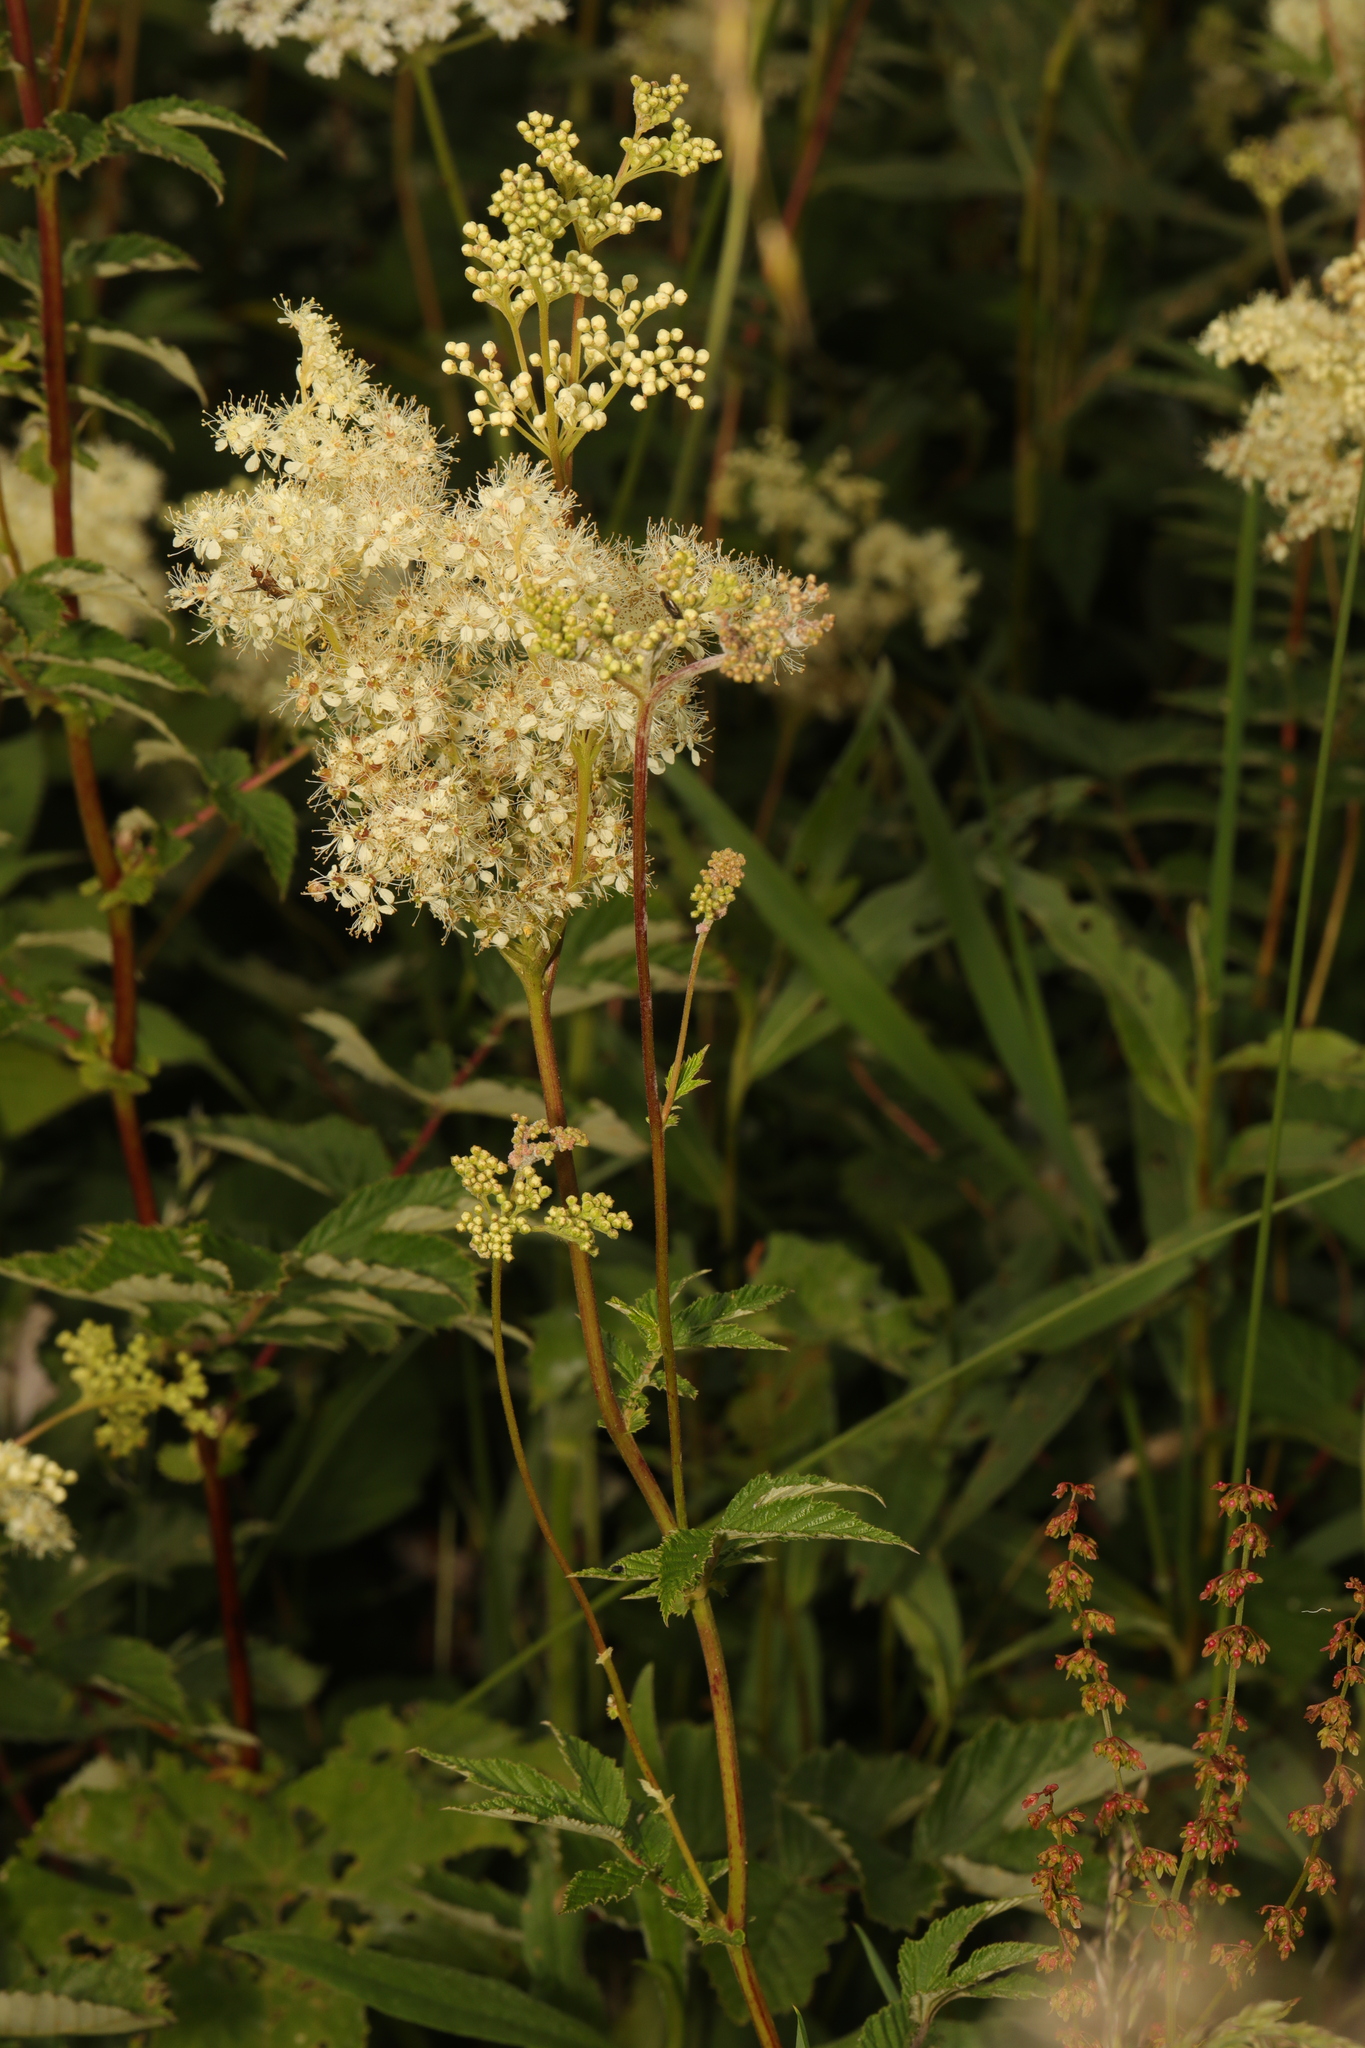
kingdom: Plantae
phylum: Tracheophyta
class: Magnoliopsida
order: Rosales
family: Rosaceae
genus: Filipendula
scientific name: Filipendula ulmaria
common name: Meadowsweet
